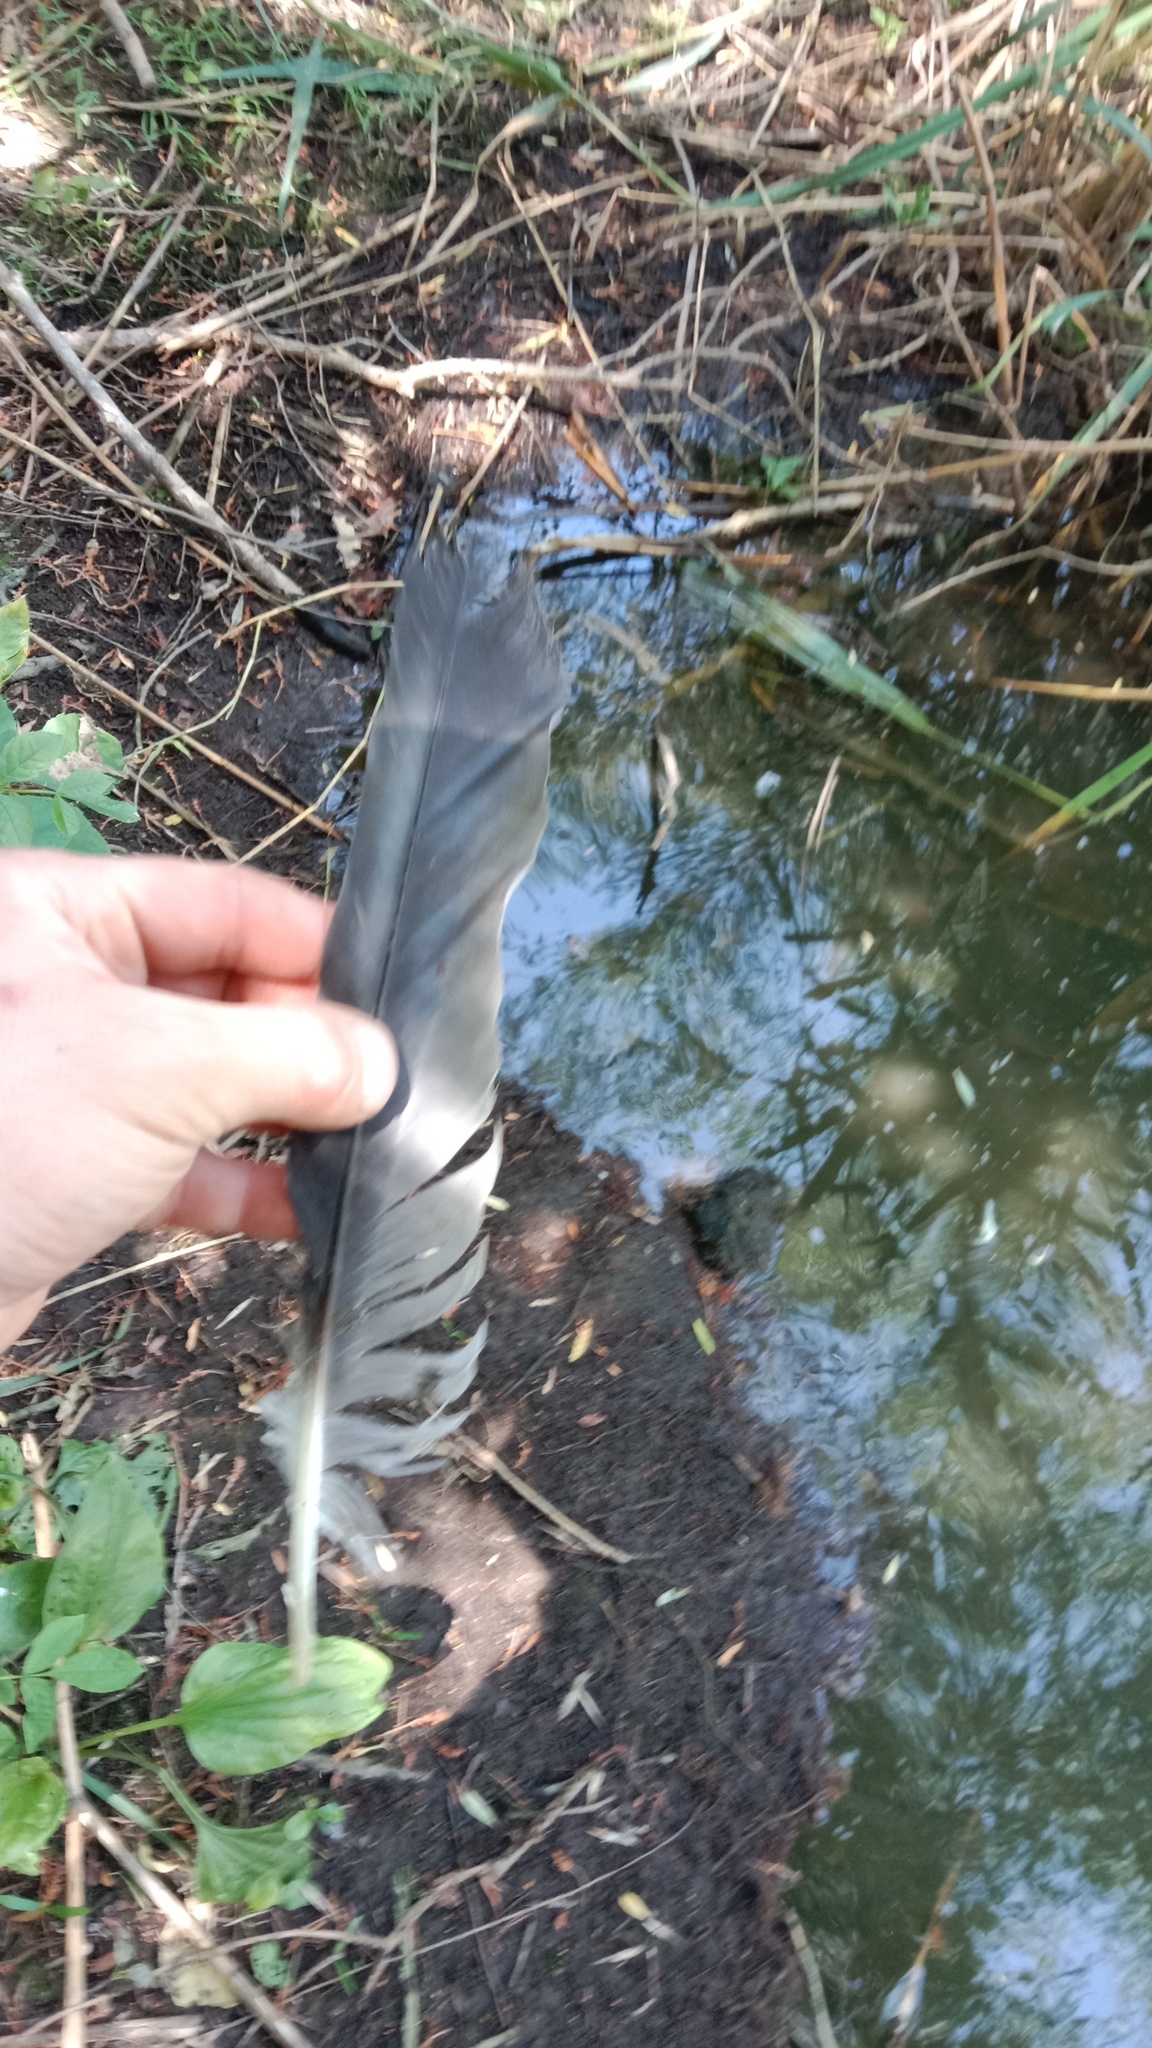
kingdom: Animalia
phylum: Chordata
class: Aves
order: Pelecaniformes
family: Ardeidae
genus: Ardea
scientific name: Ardea cinerea
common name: Grey heron
